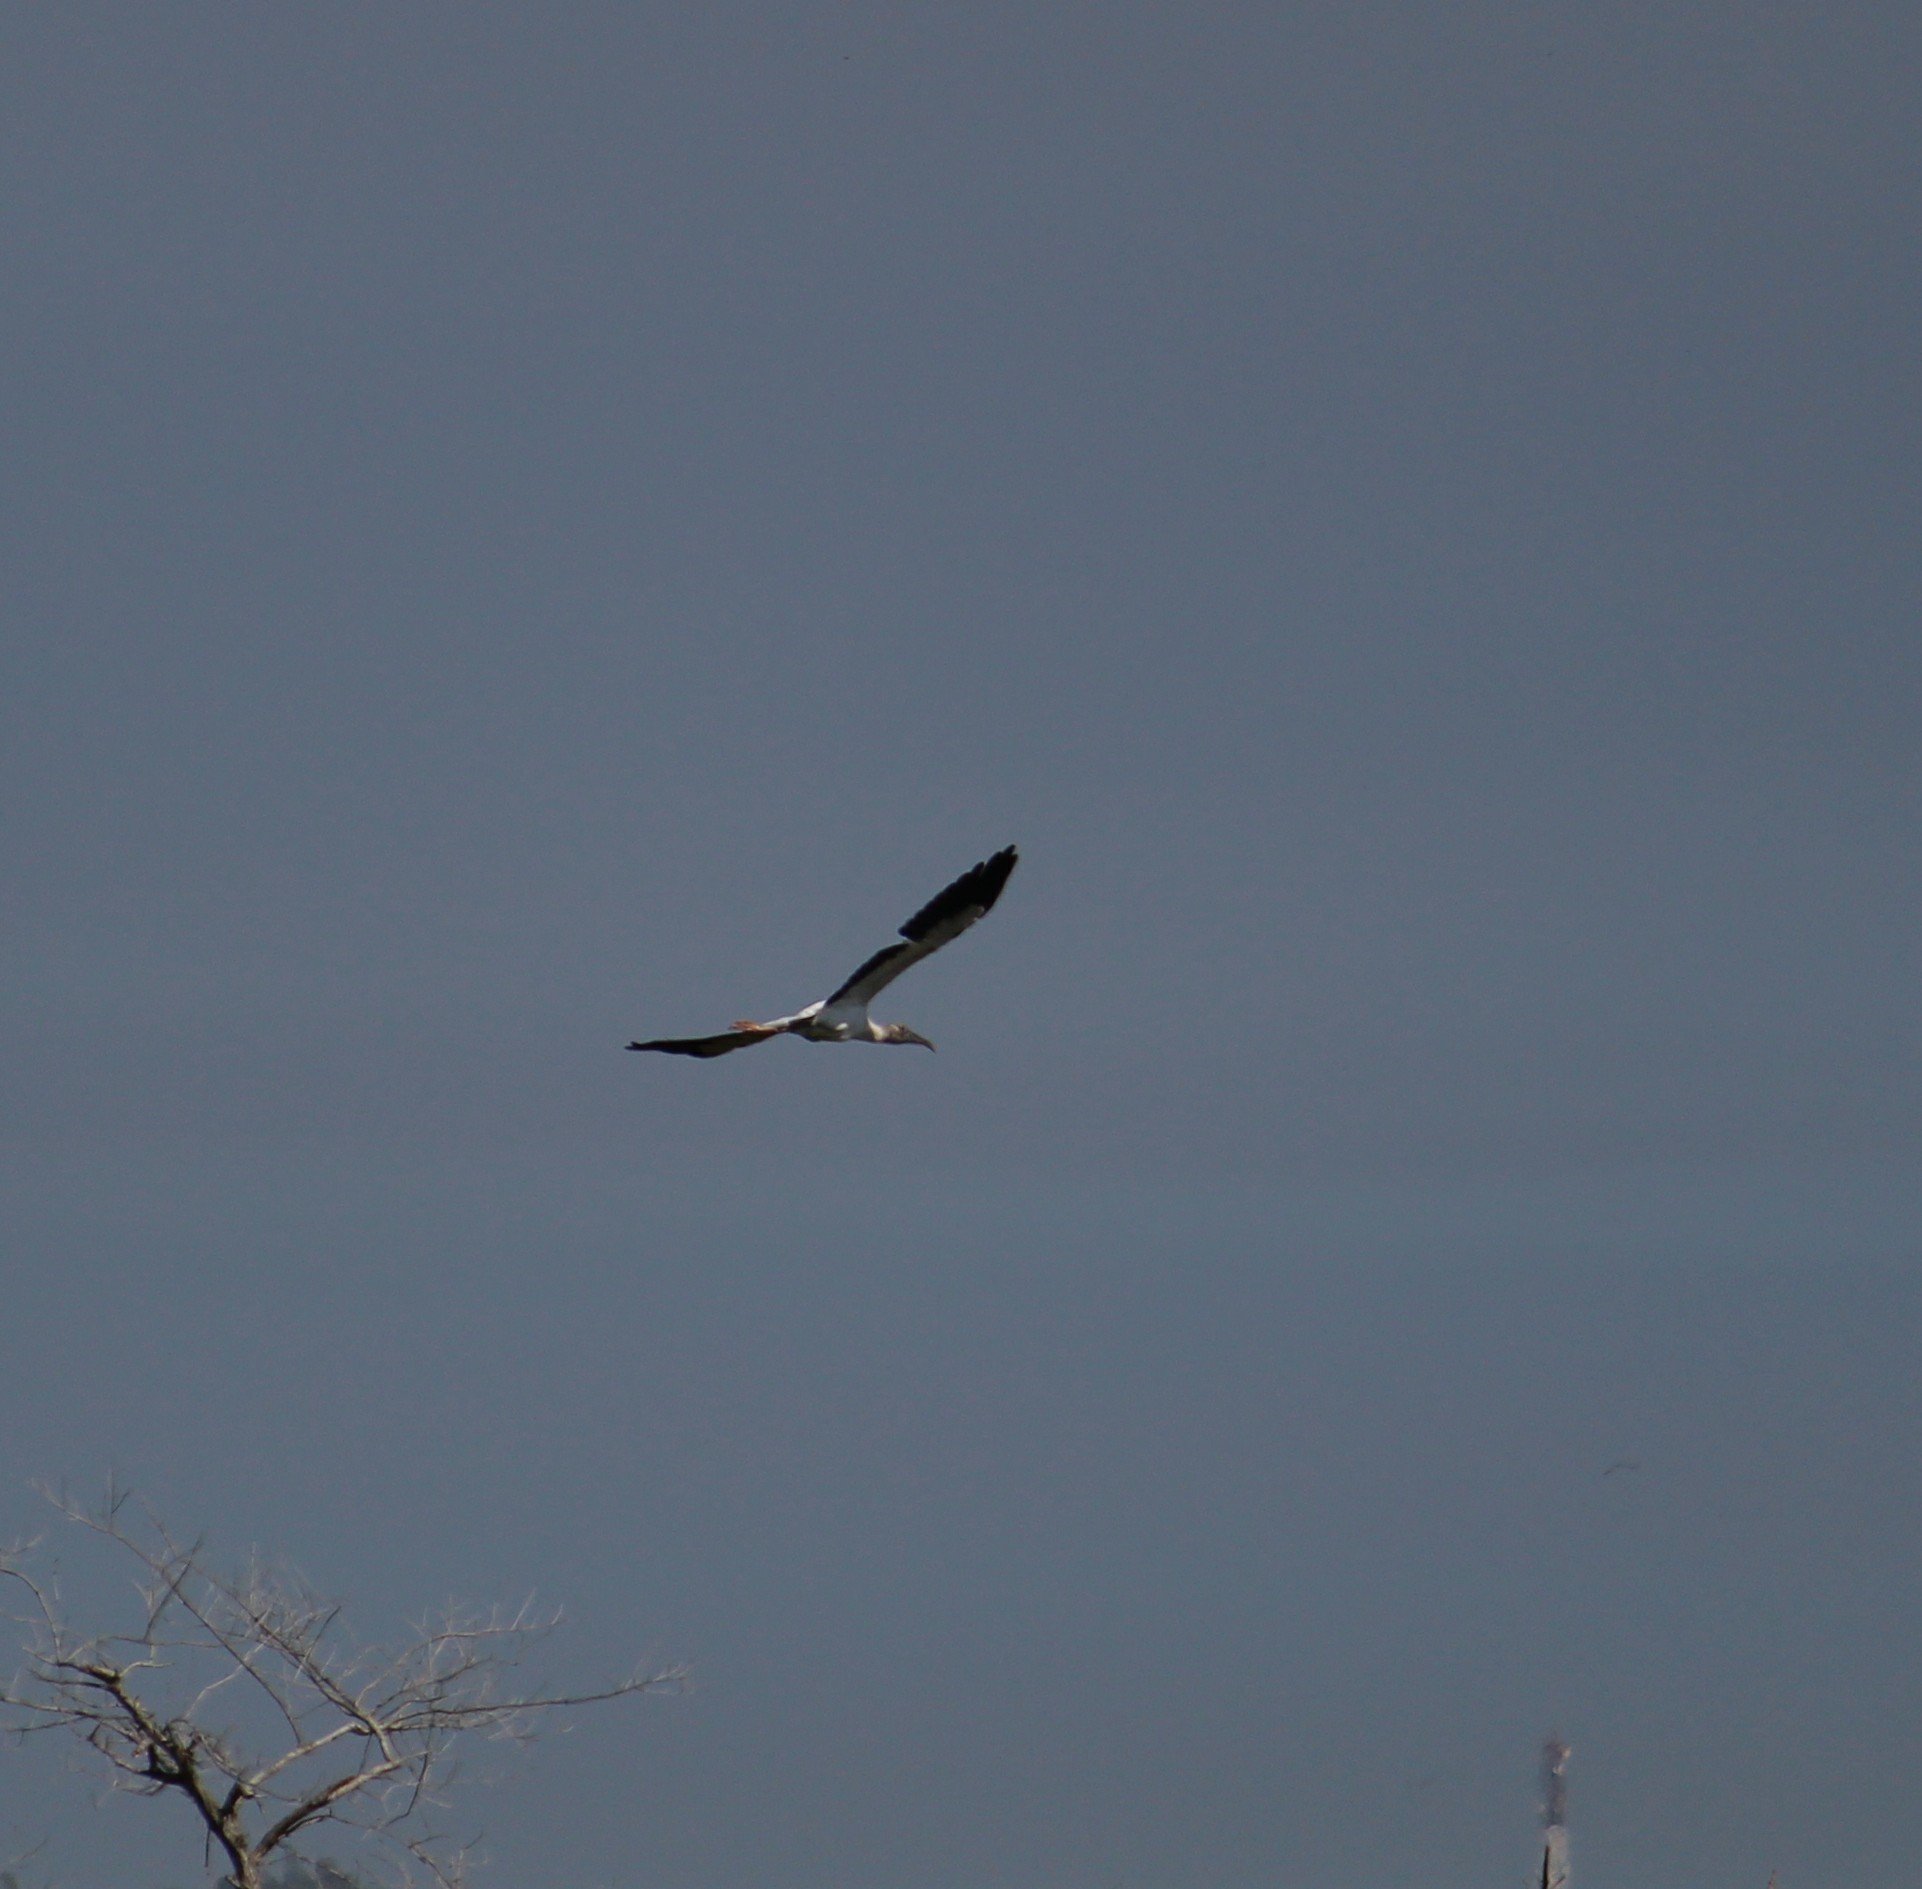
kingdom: Animalia
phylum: Chordata
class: Aves
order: Ciconiiformes
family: Ciconiidae
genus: Mycteria
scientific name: Mycteria americana
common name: Wood stork
